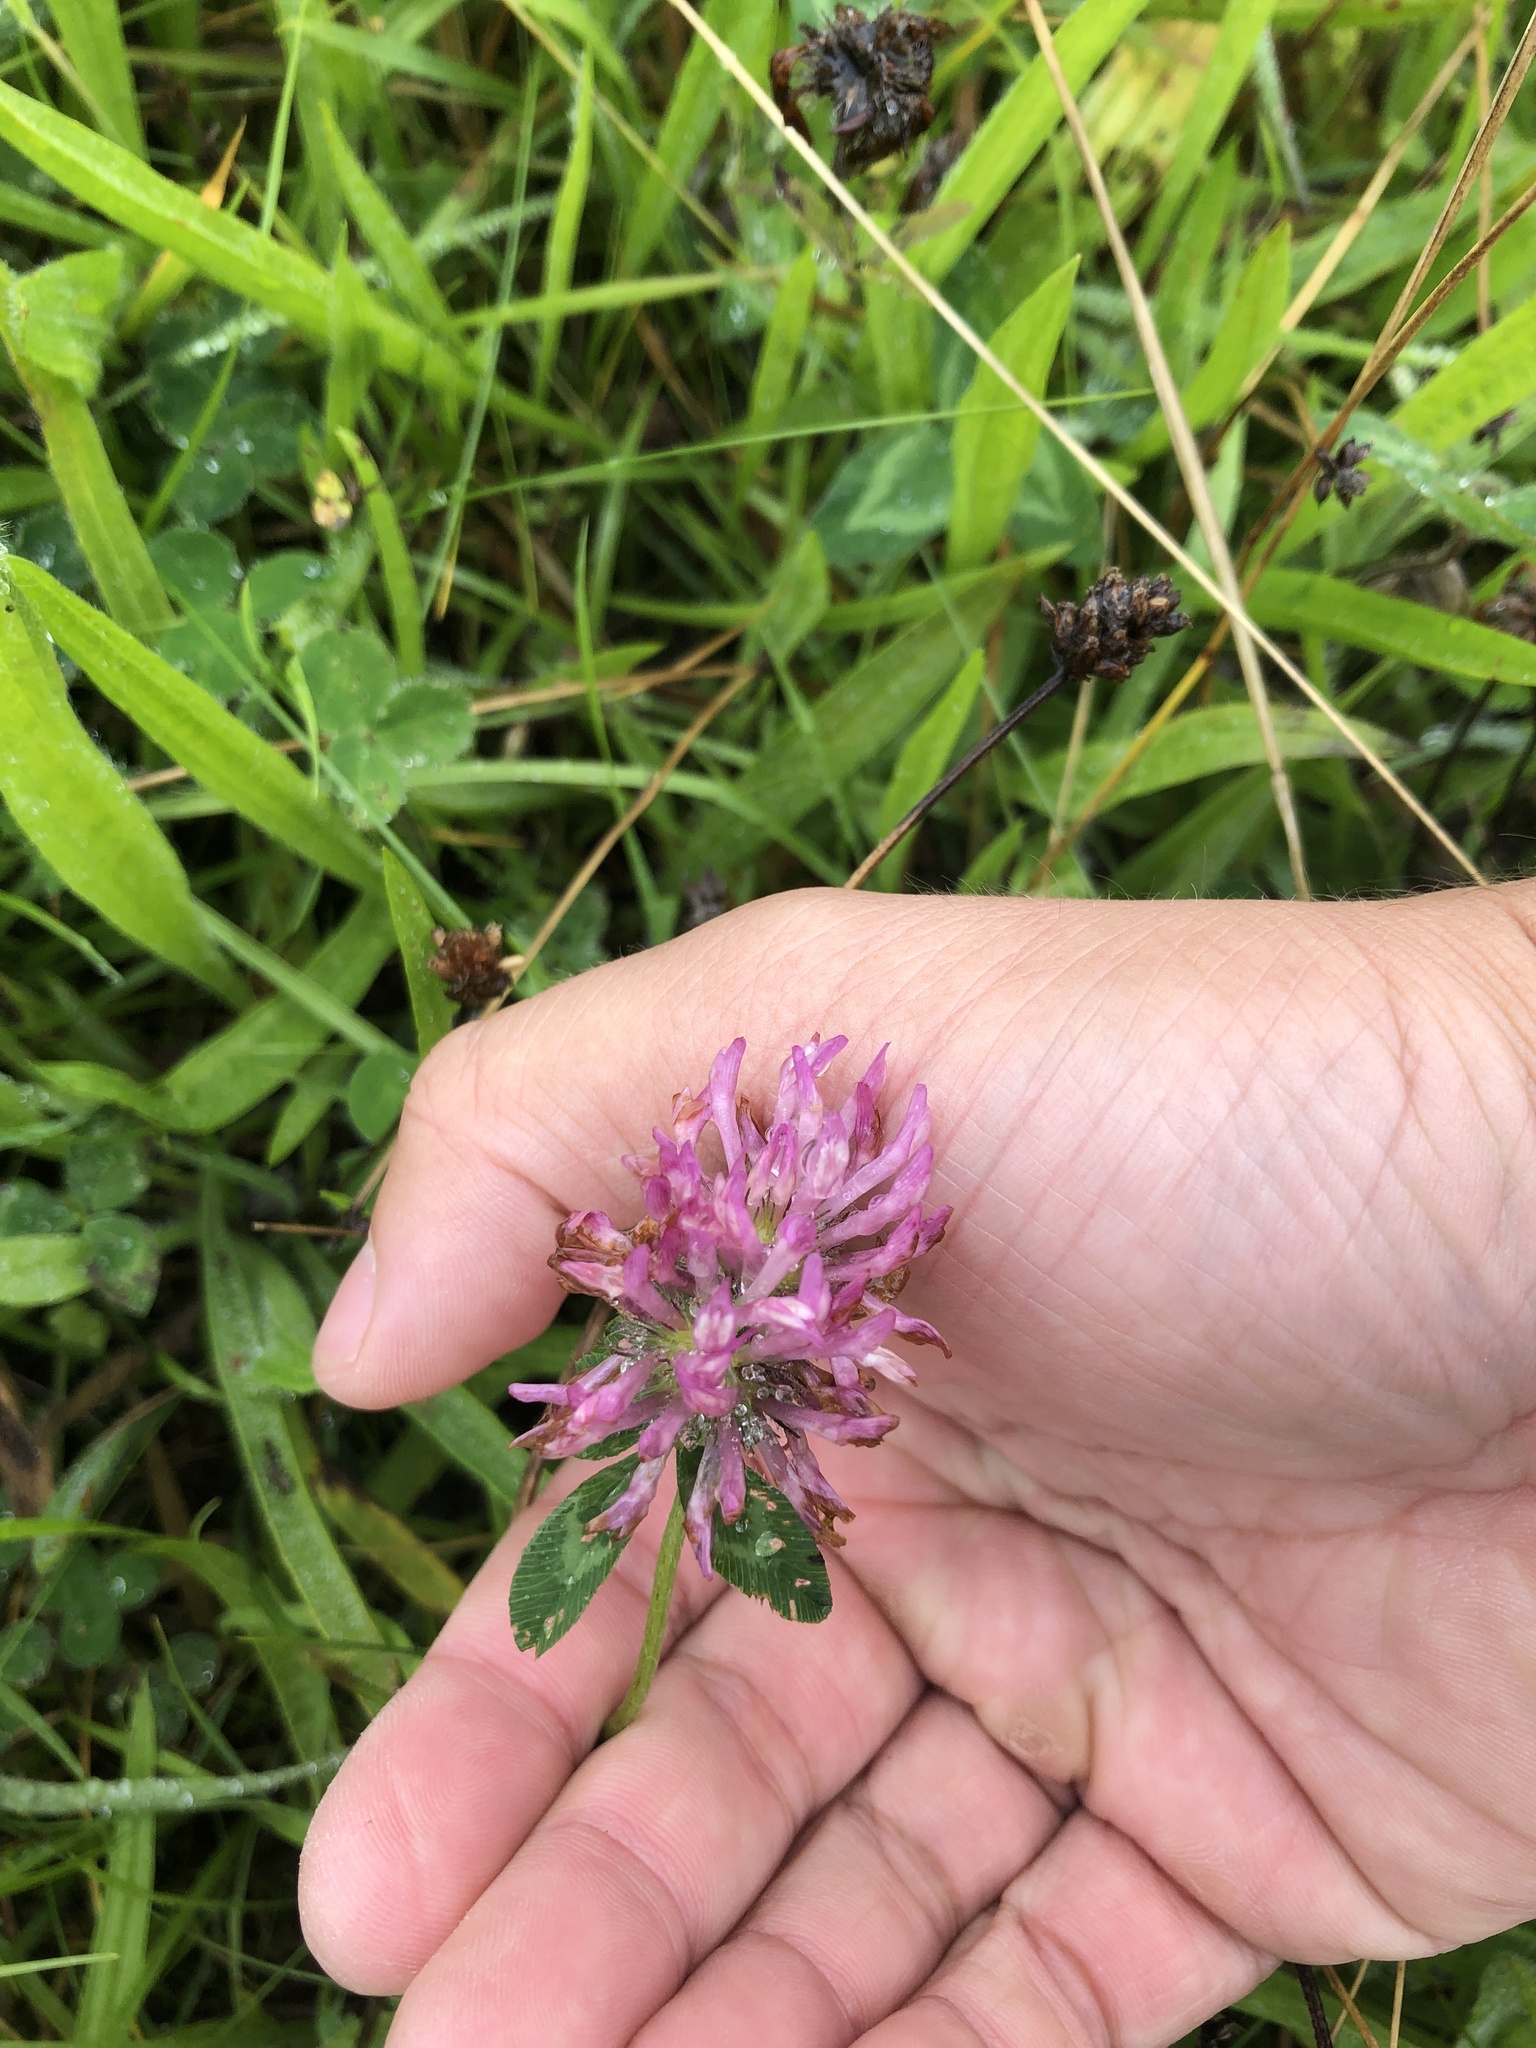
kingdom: Plantae
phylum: Tracheophyta
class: Magnoliopsida
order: Fabales
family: Fabaceae
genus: Trifolium
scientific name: Trifolium pratense
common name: Red clover
